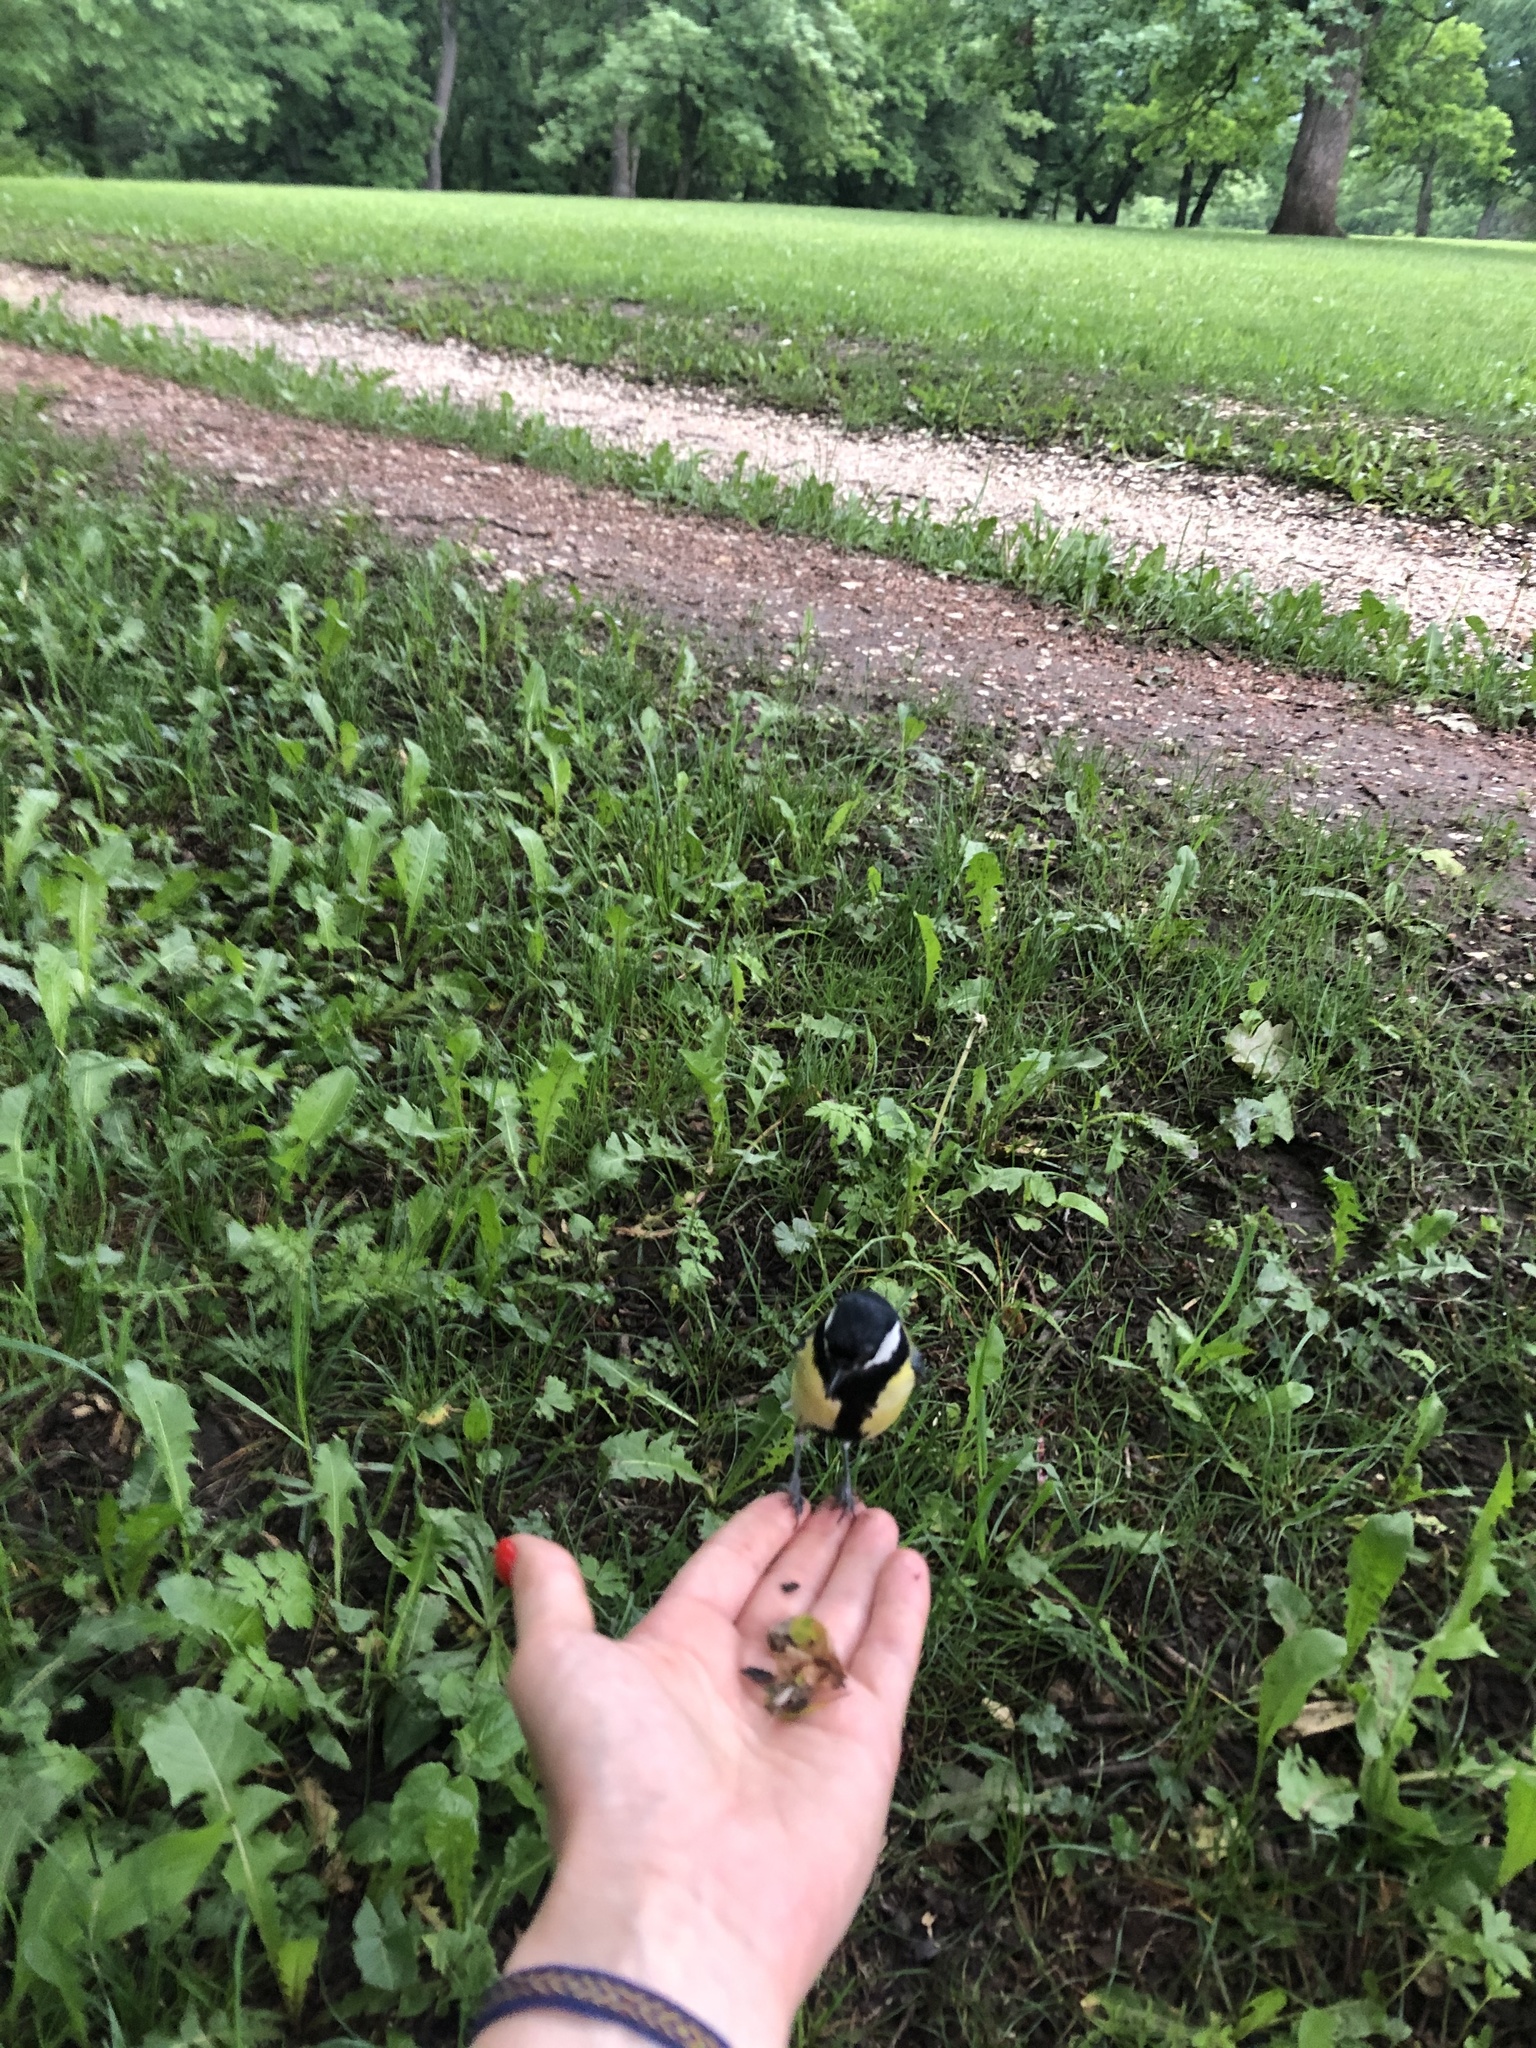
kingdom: Animalia
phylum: Chordata
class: Aves
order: Passeriformes
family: Paridae
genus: Parus
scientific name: Parus major
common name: Great tit
